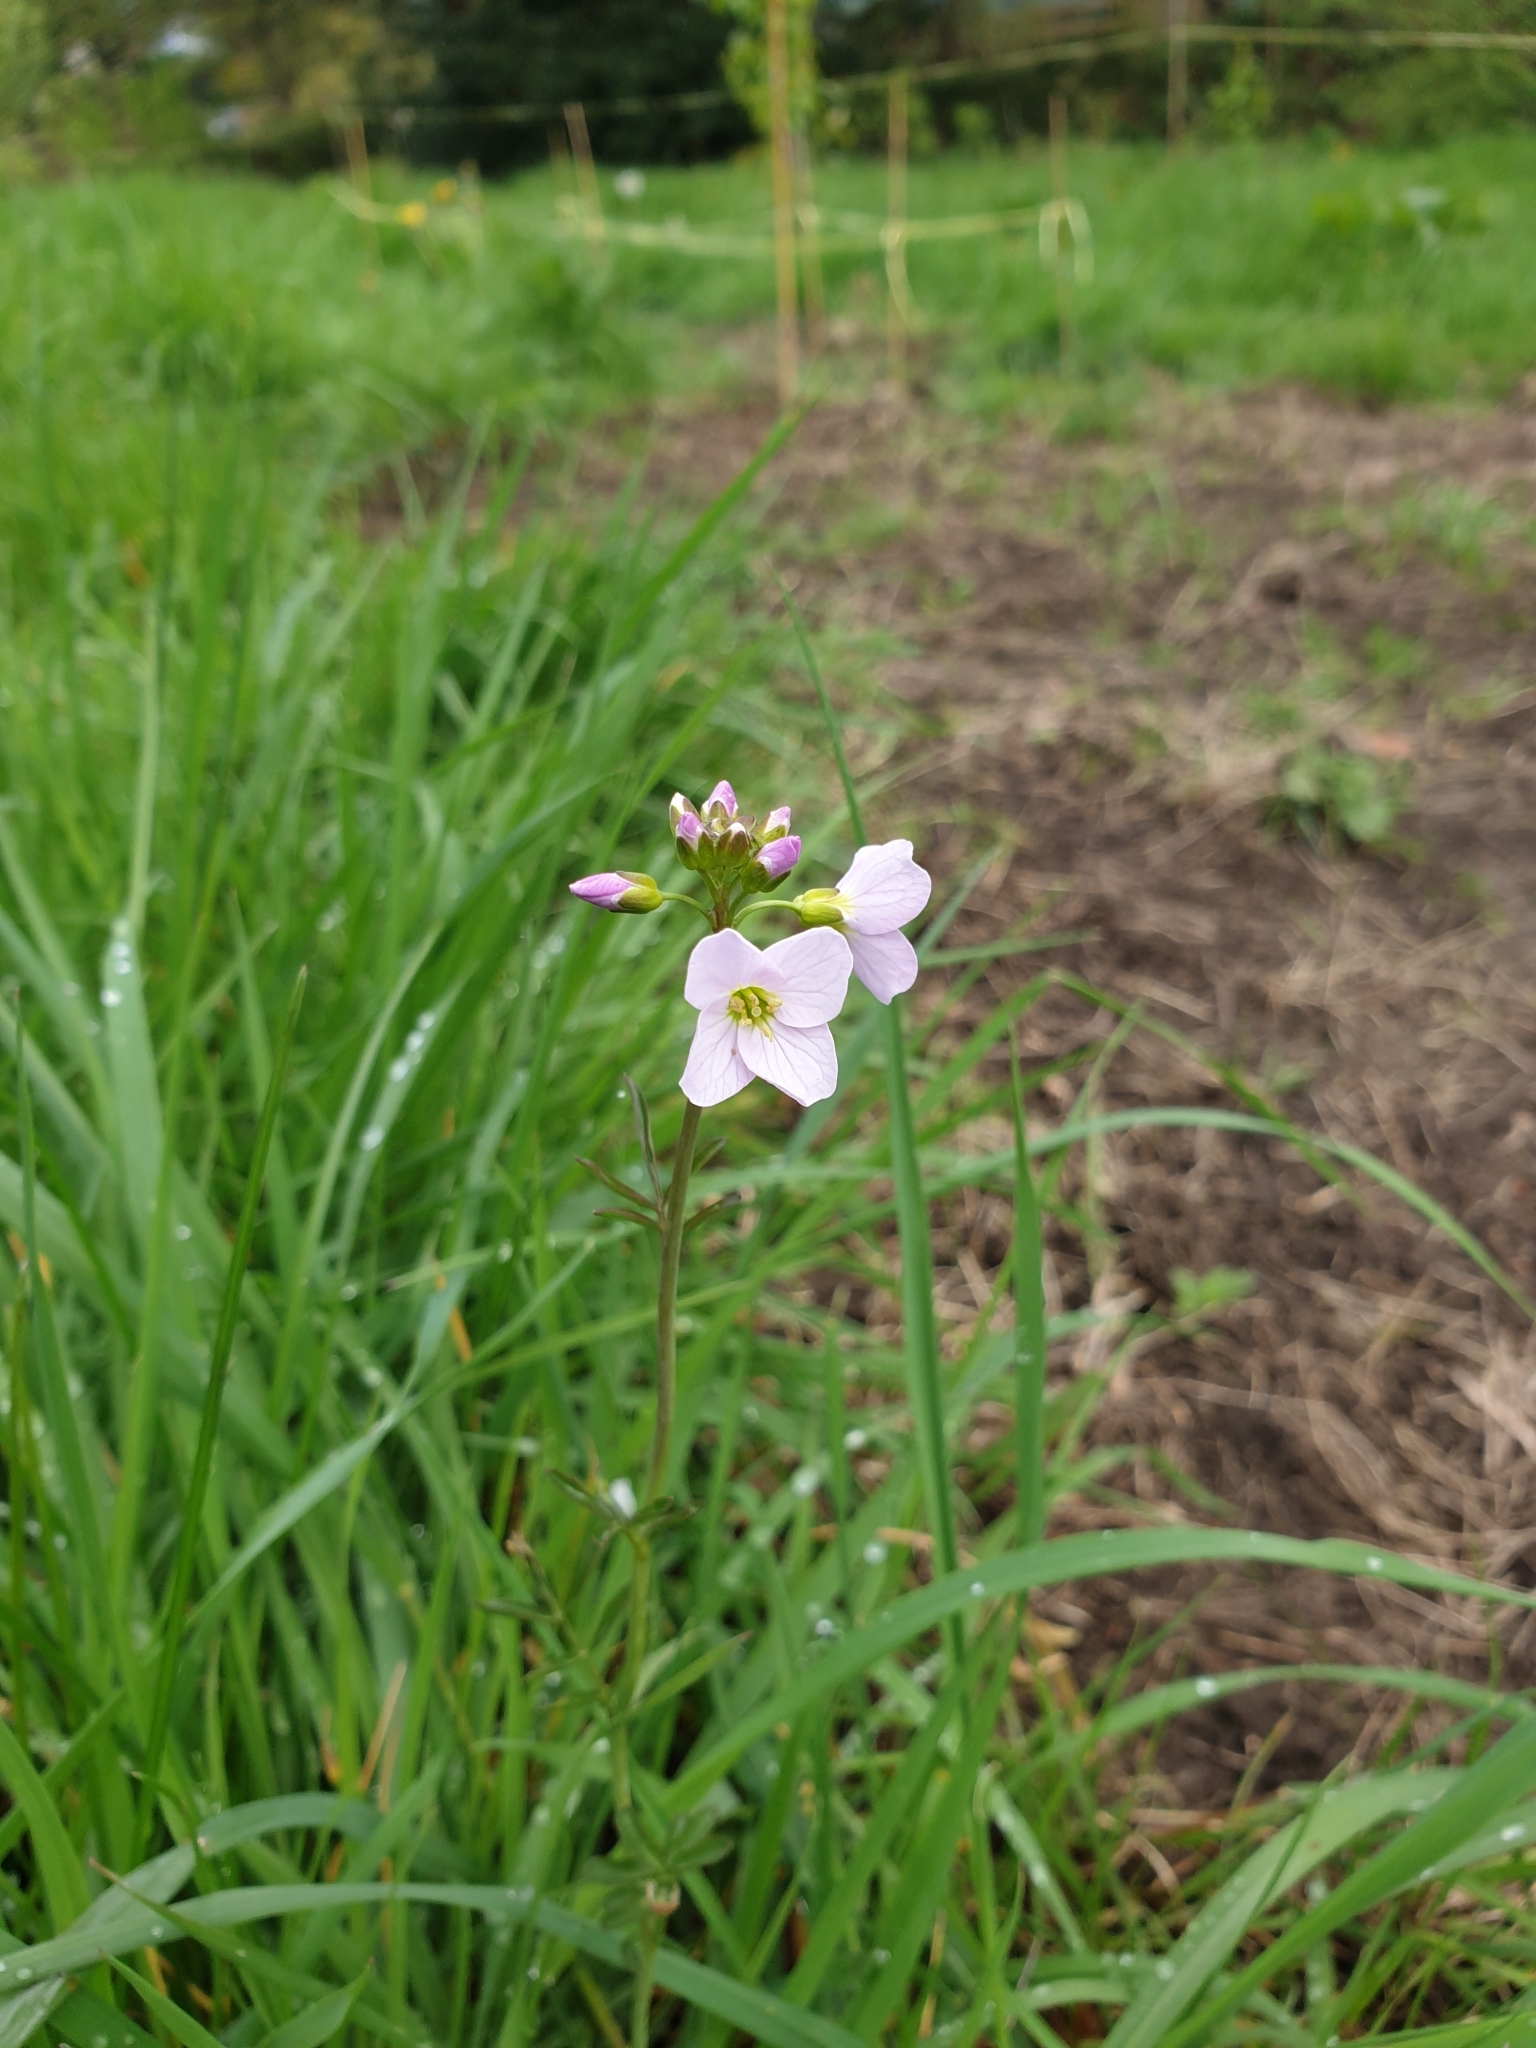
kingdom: Plantae
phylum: Tracheophyta
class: Magnoliopsida
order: Brassicales
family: Brassicaceae
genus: Cardamine
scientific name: Cardamine pratensis
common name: Cuckoo flower
